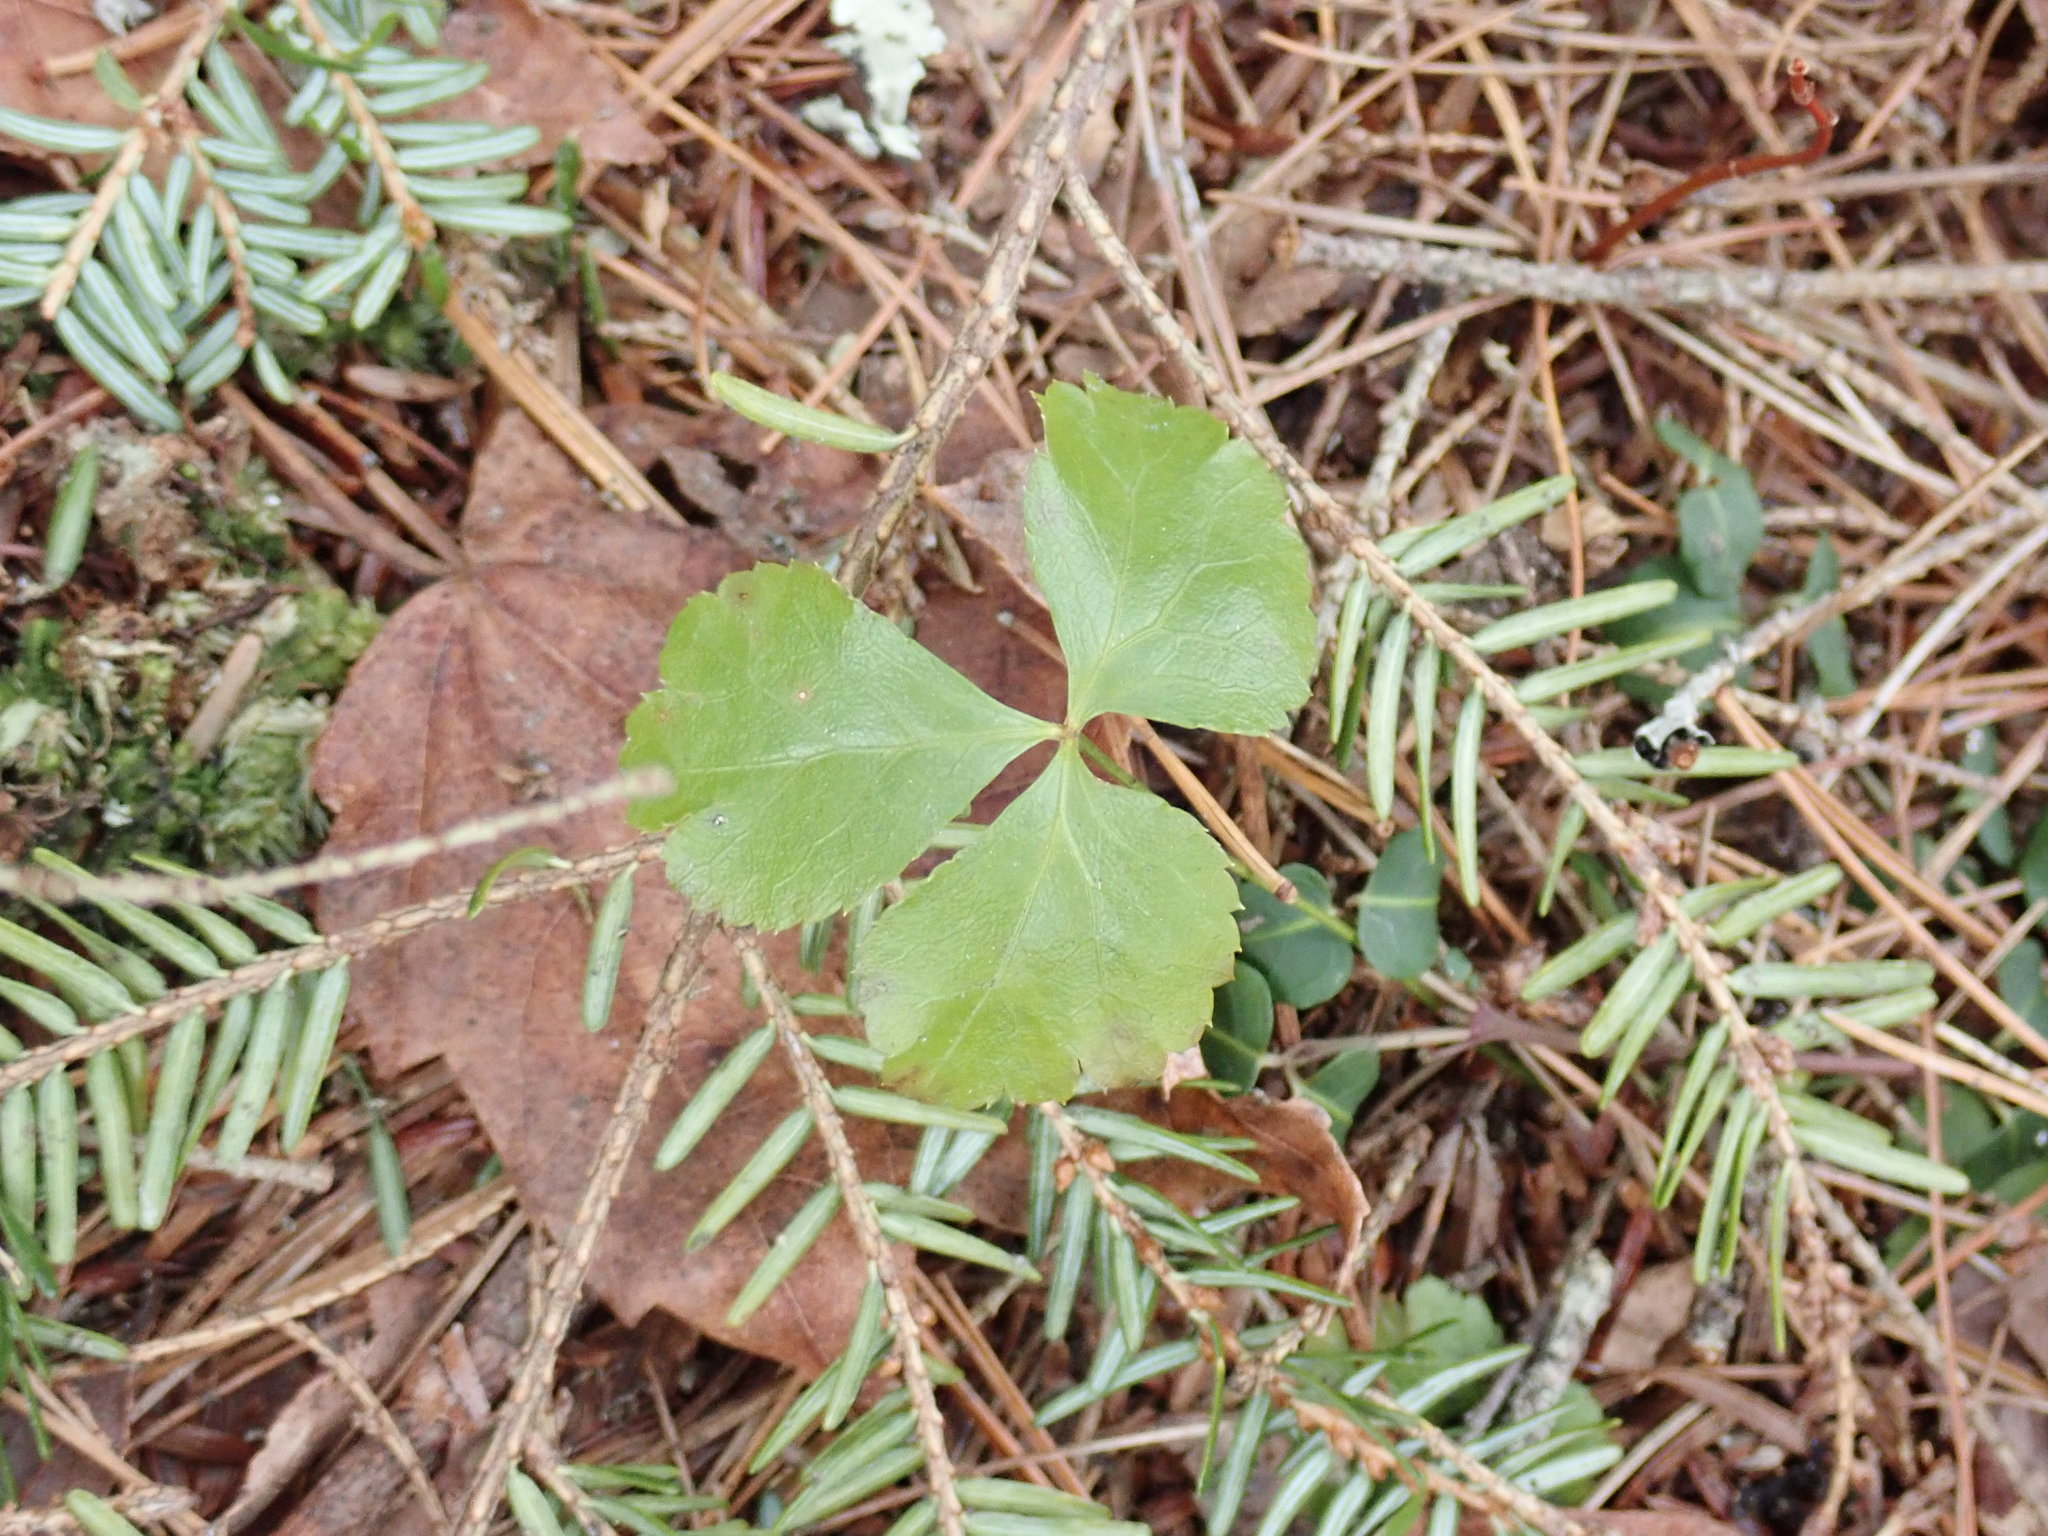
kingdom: Plantae
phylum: Tracheophyta
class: Magnoliopsida
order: Ranunculales
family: Ranunculaceae
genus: Coptis
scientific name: Coptis trifolia
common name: Canker-root
